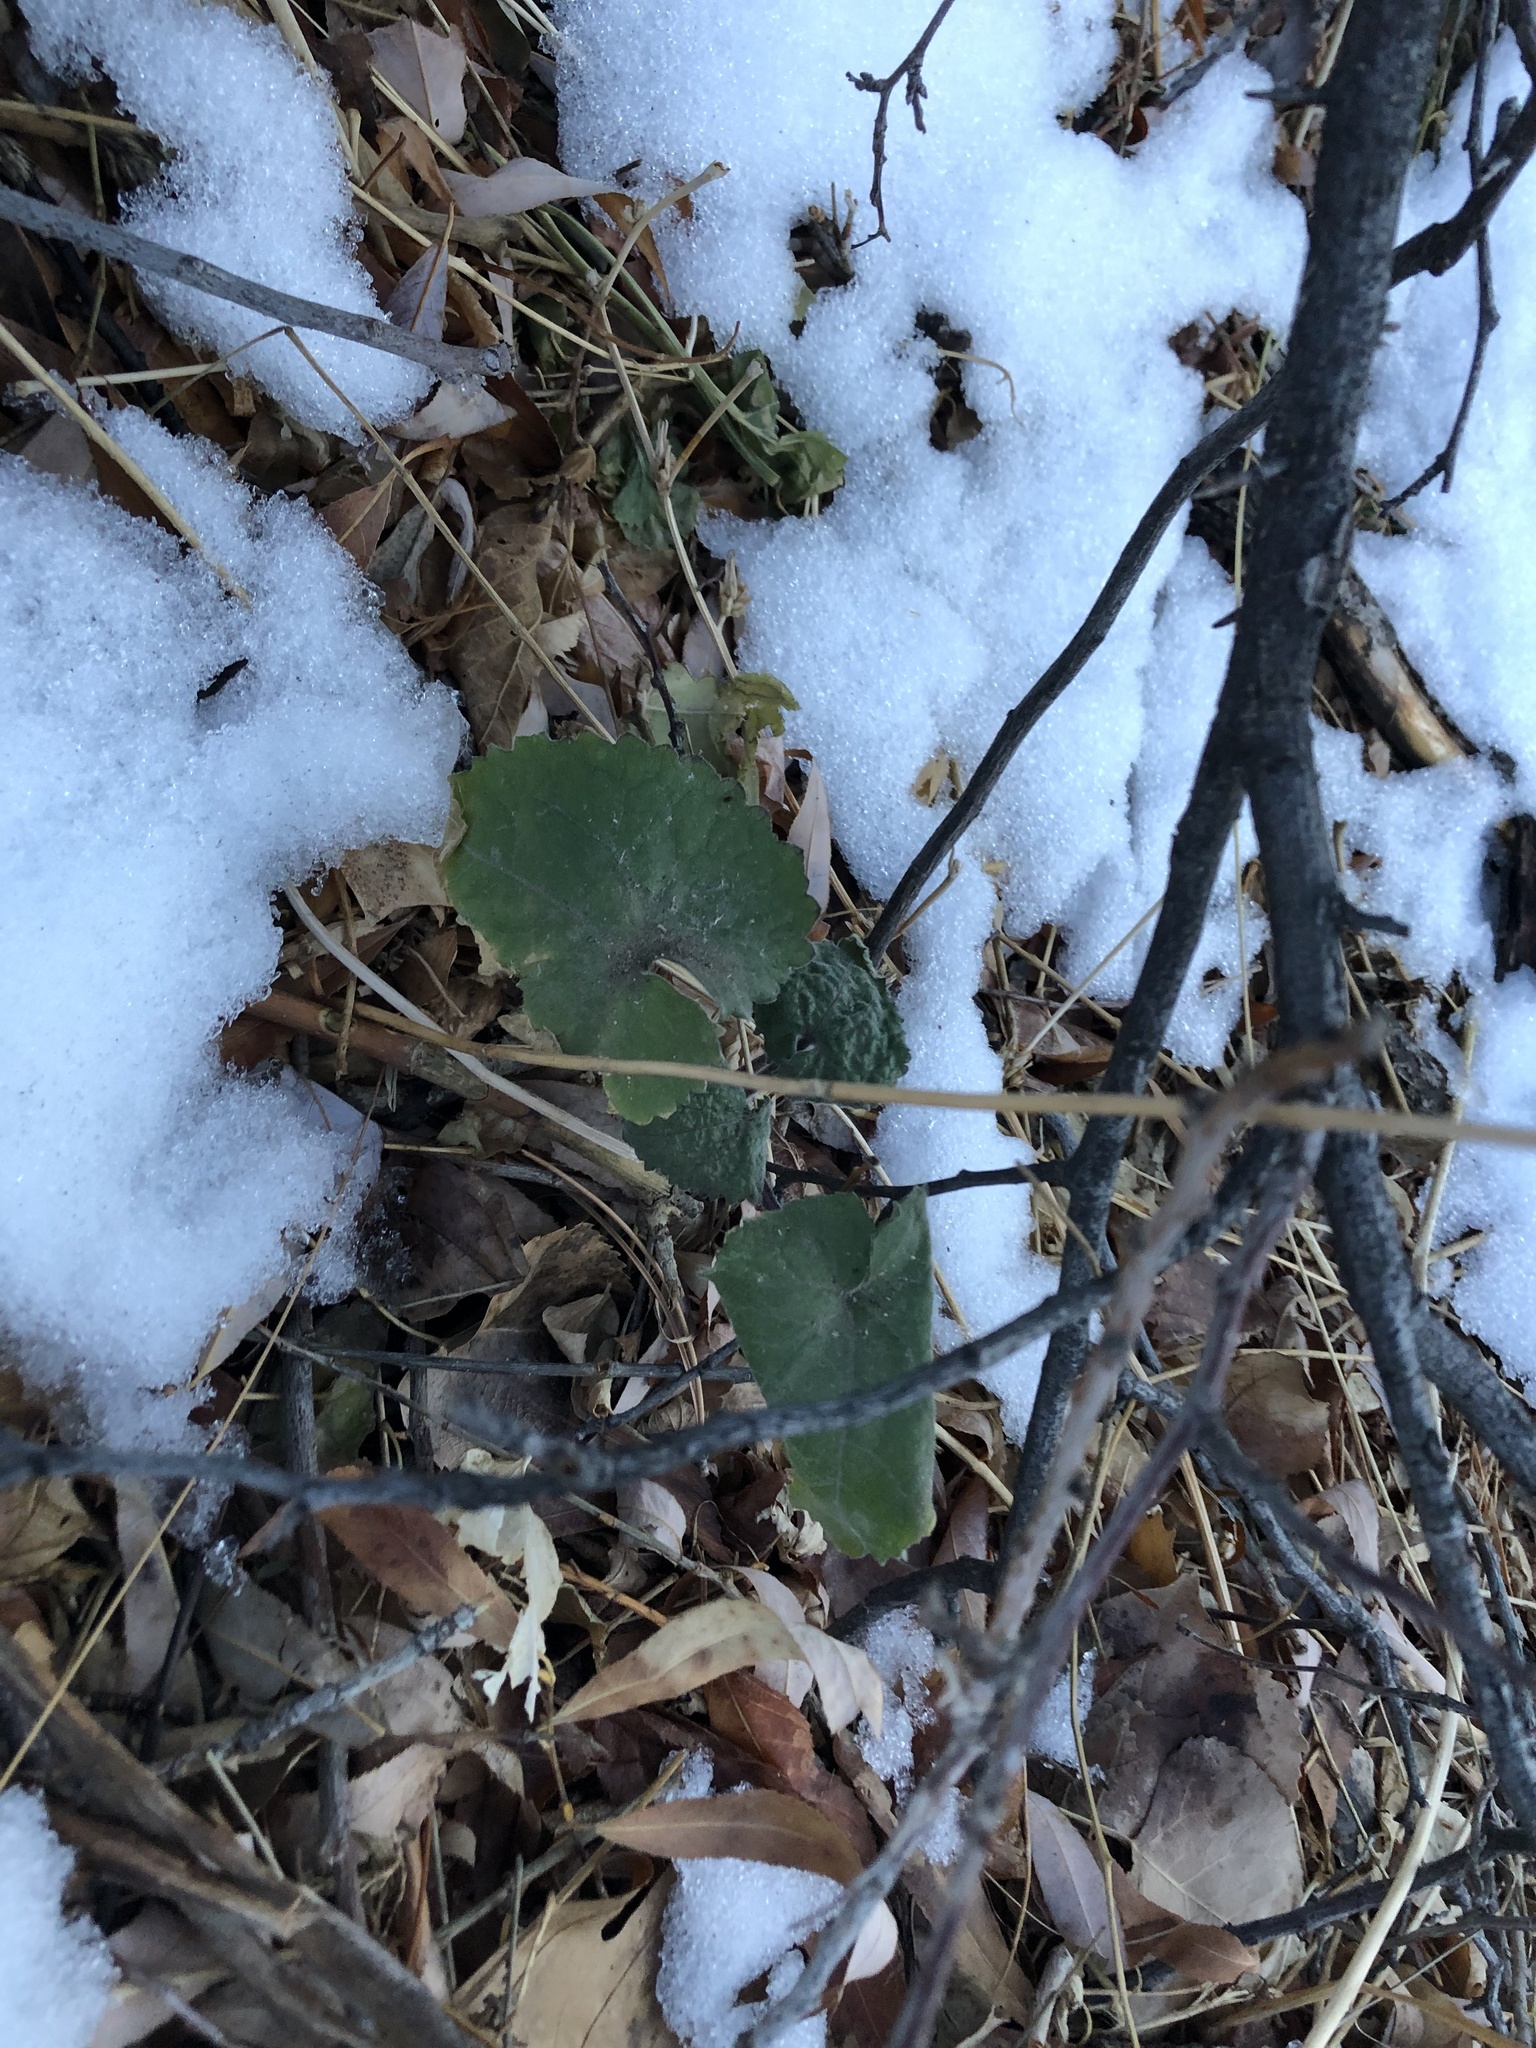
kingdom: Plantae
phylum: Tracheophyta
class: Magnoliopsida
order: Asterales
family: Campanulaceae
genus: Campanula
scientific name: Campanula rapunculoides
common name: Creeping bellflower
